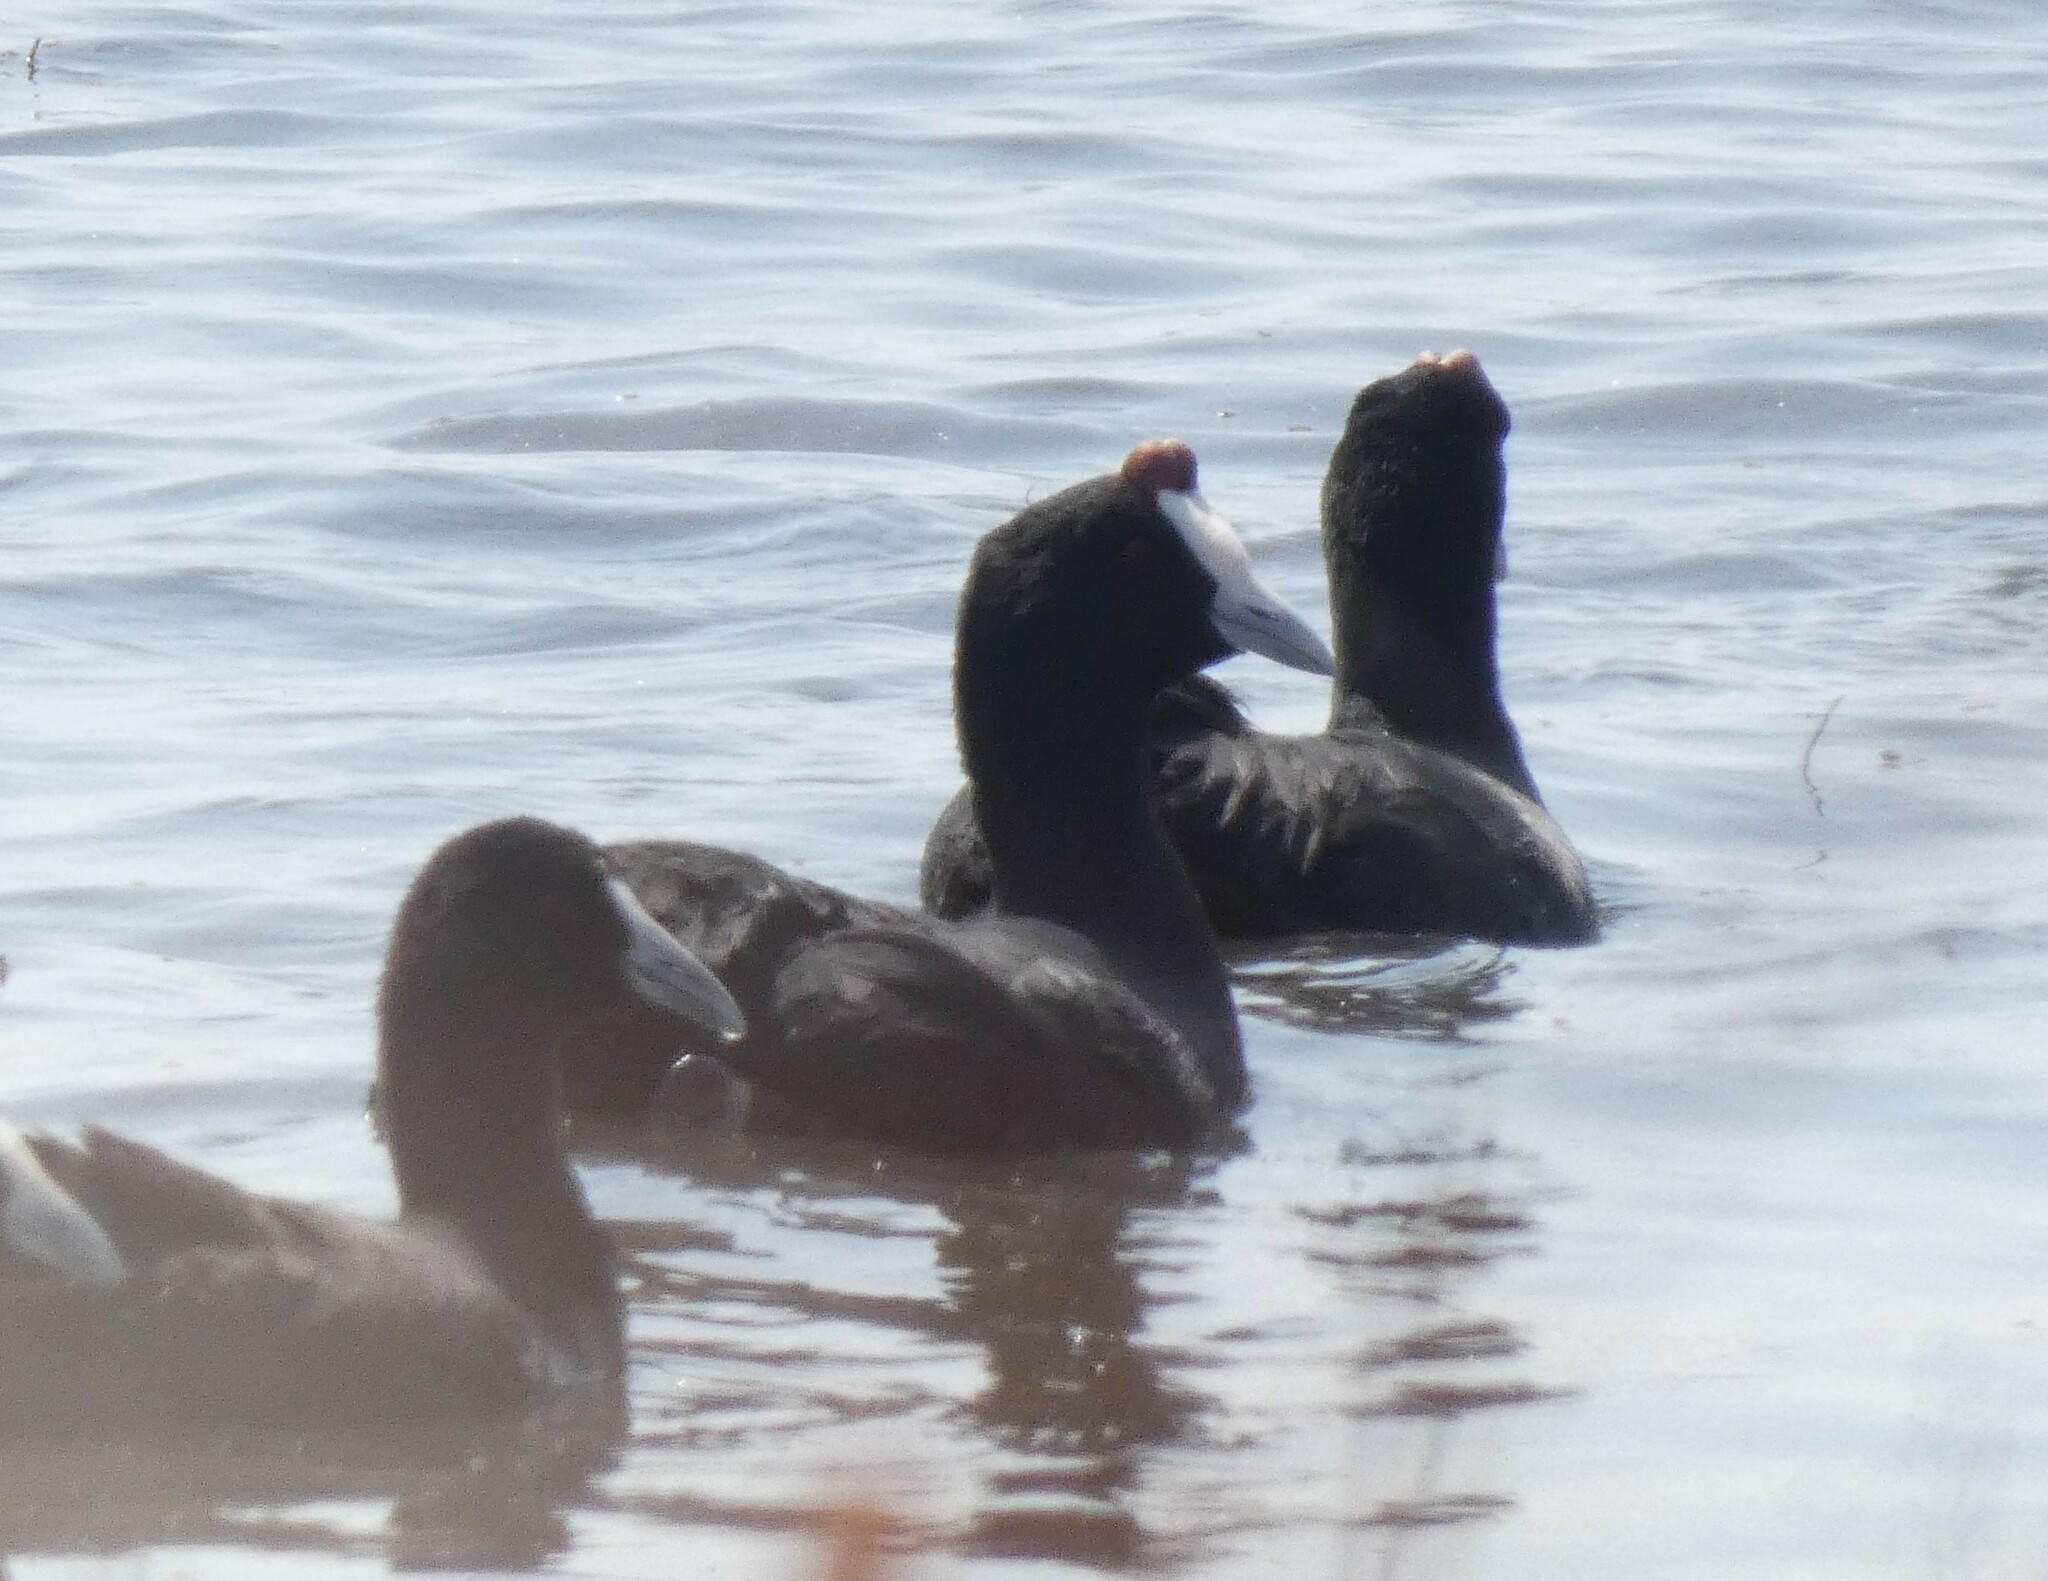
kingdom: Animalia
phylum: Chordata
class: Aves
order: Gruiformes
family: Rallidae
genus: Fulica
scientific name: Fulica cristata
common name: Red-knobbed coot
